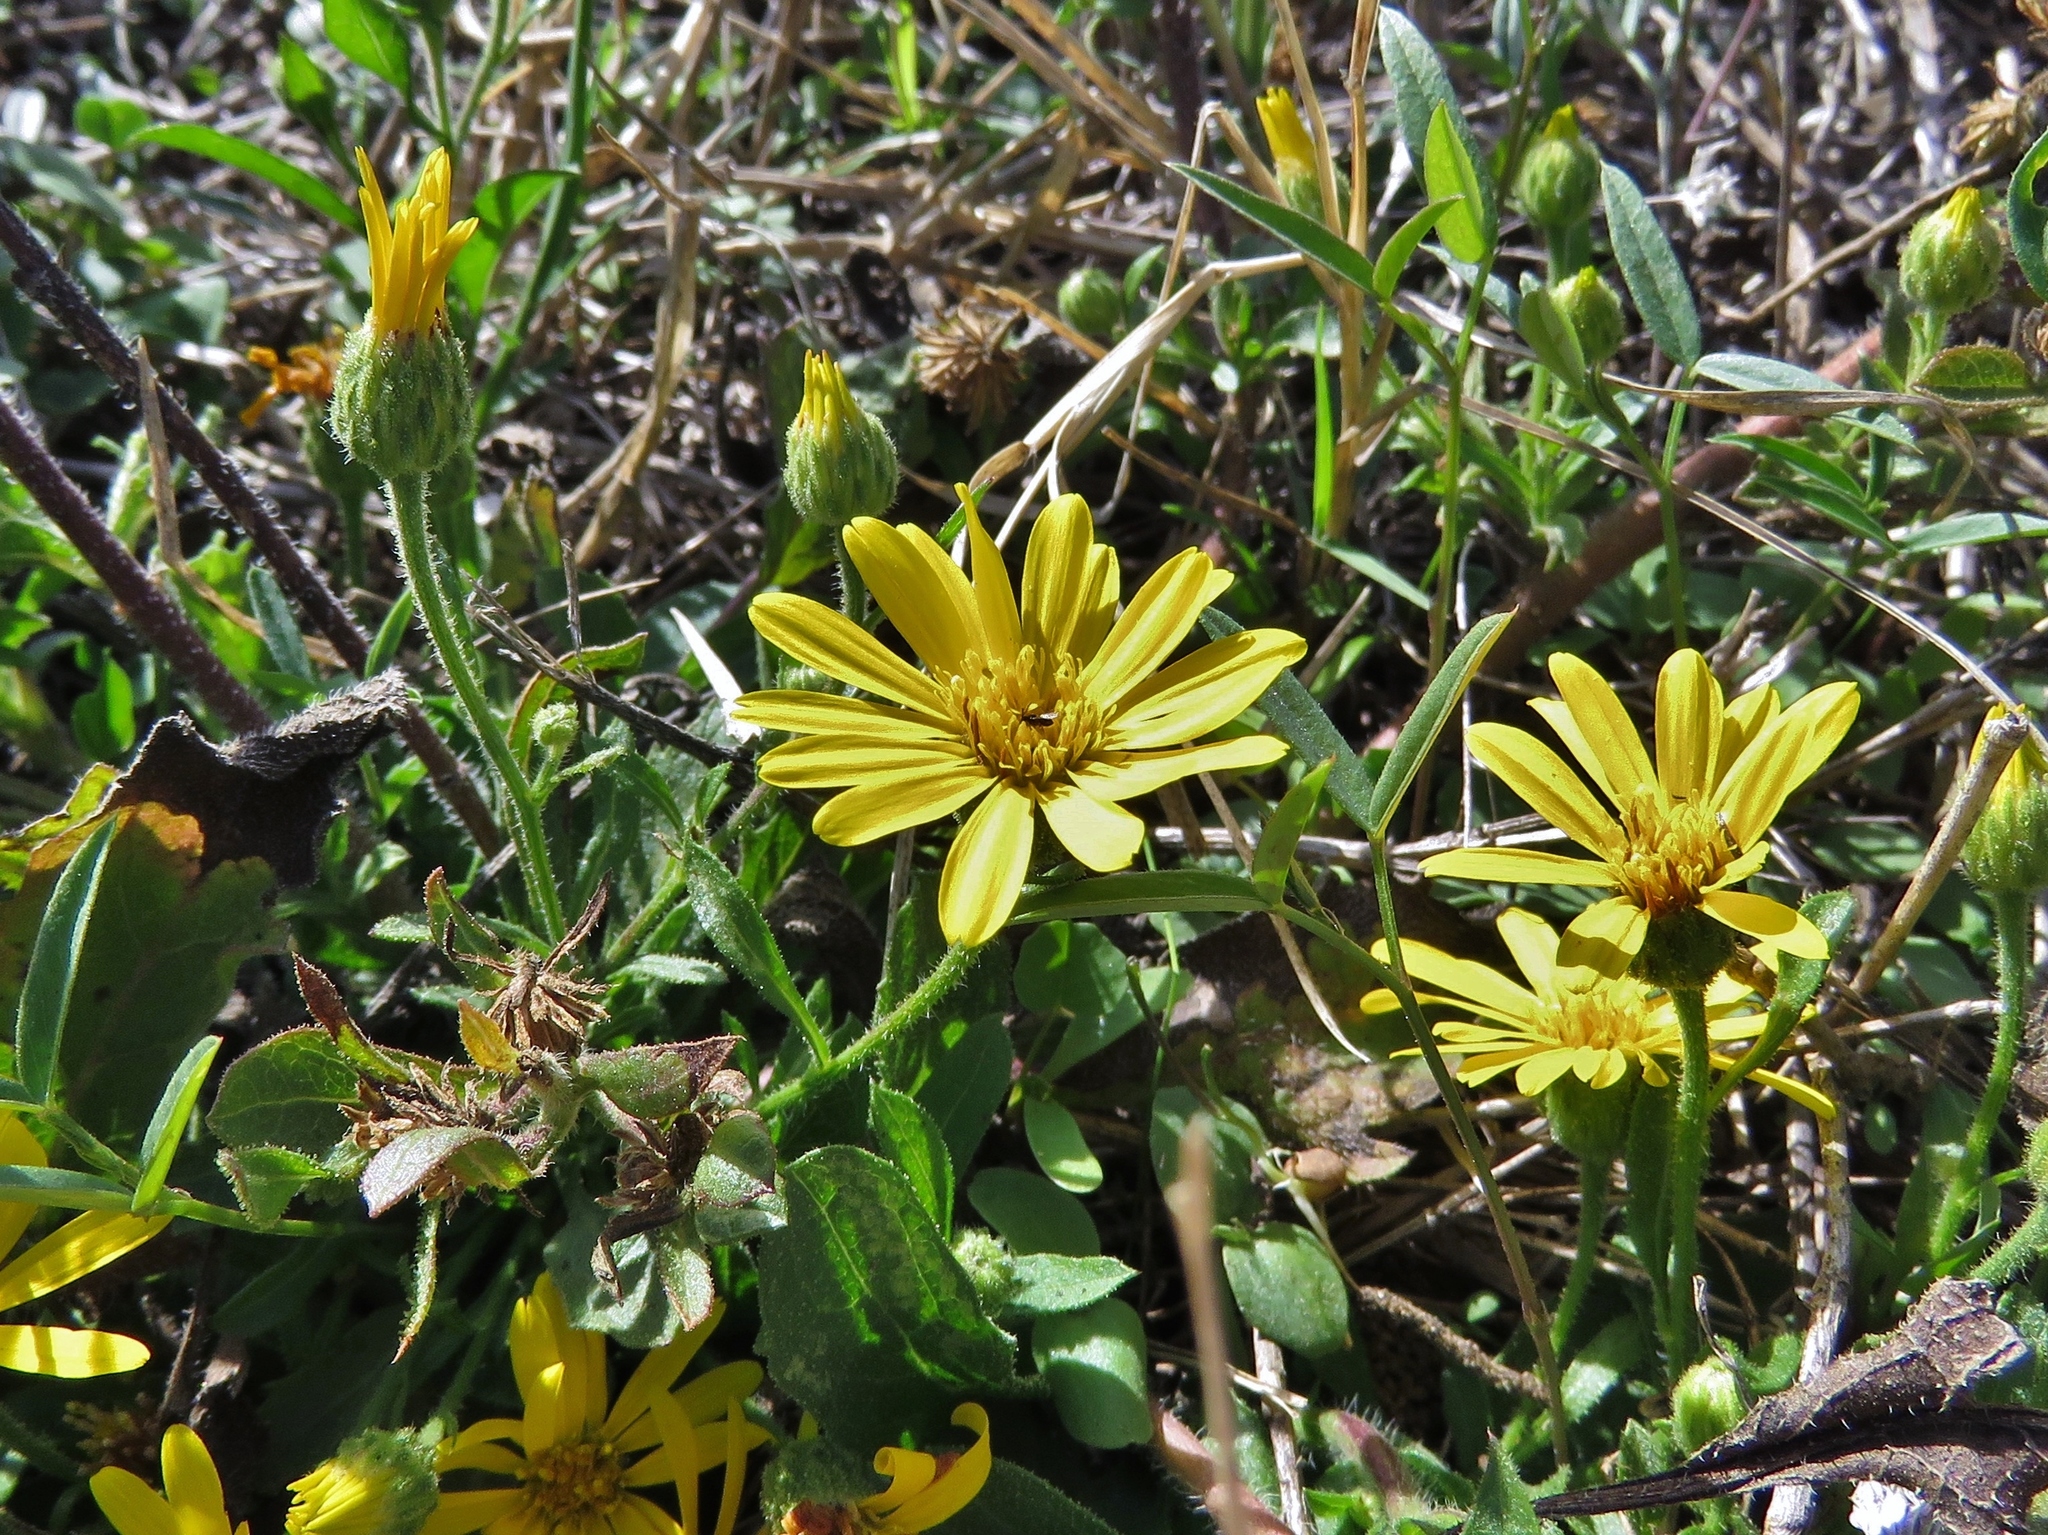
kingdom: Plantae
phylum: Tracheophyta
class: Magnoliopsida
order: Asterales
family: Asteraceae
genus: Heterotheca
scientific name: Heterotheca subaxillaris
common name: Camphorweed
